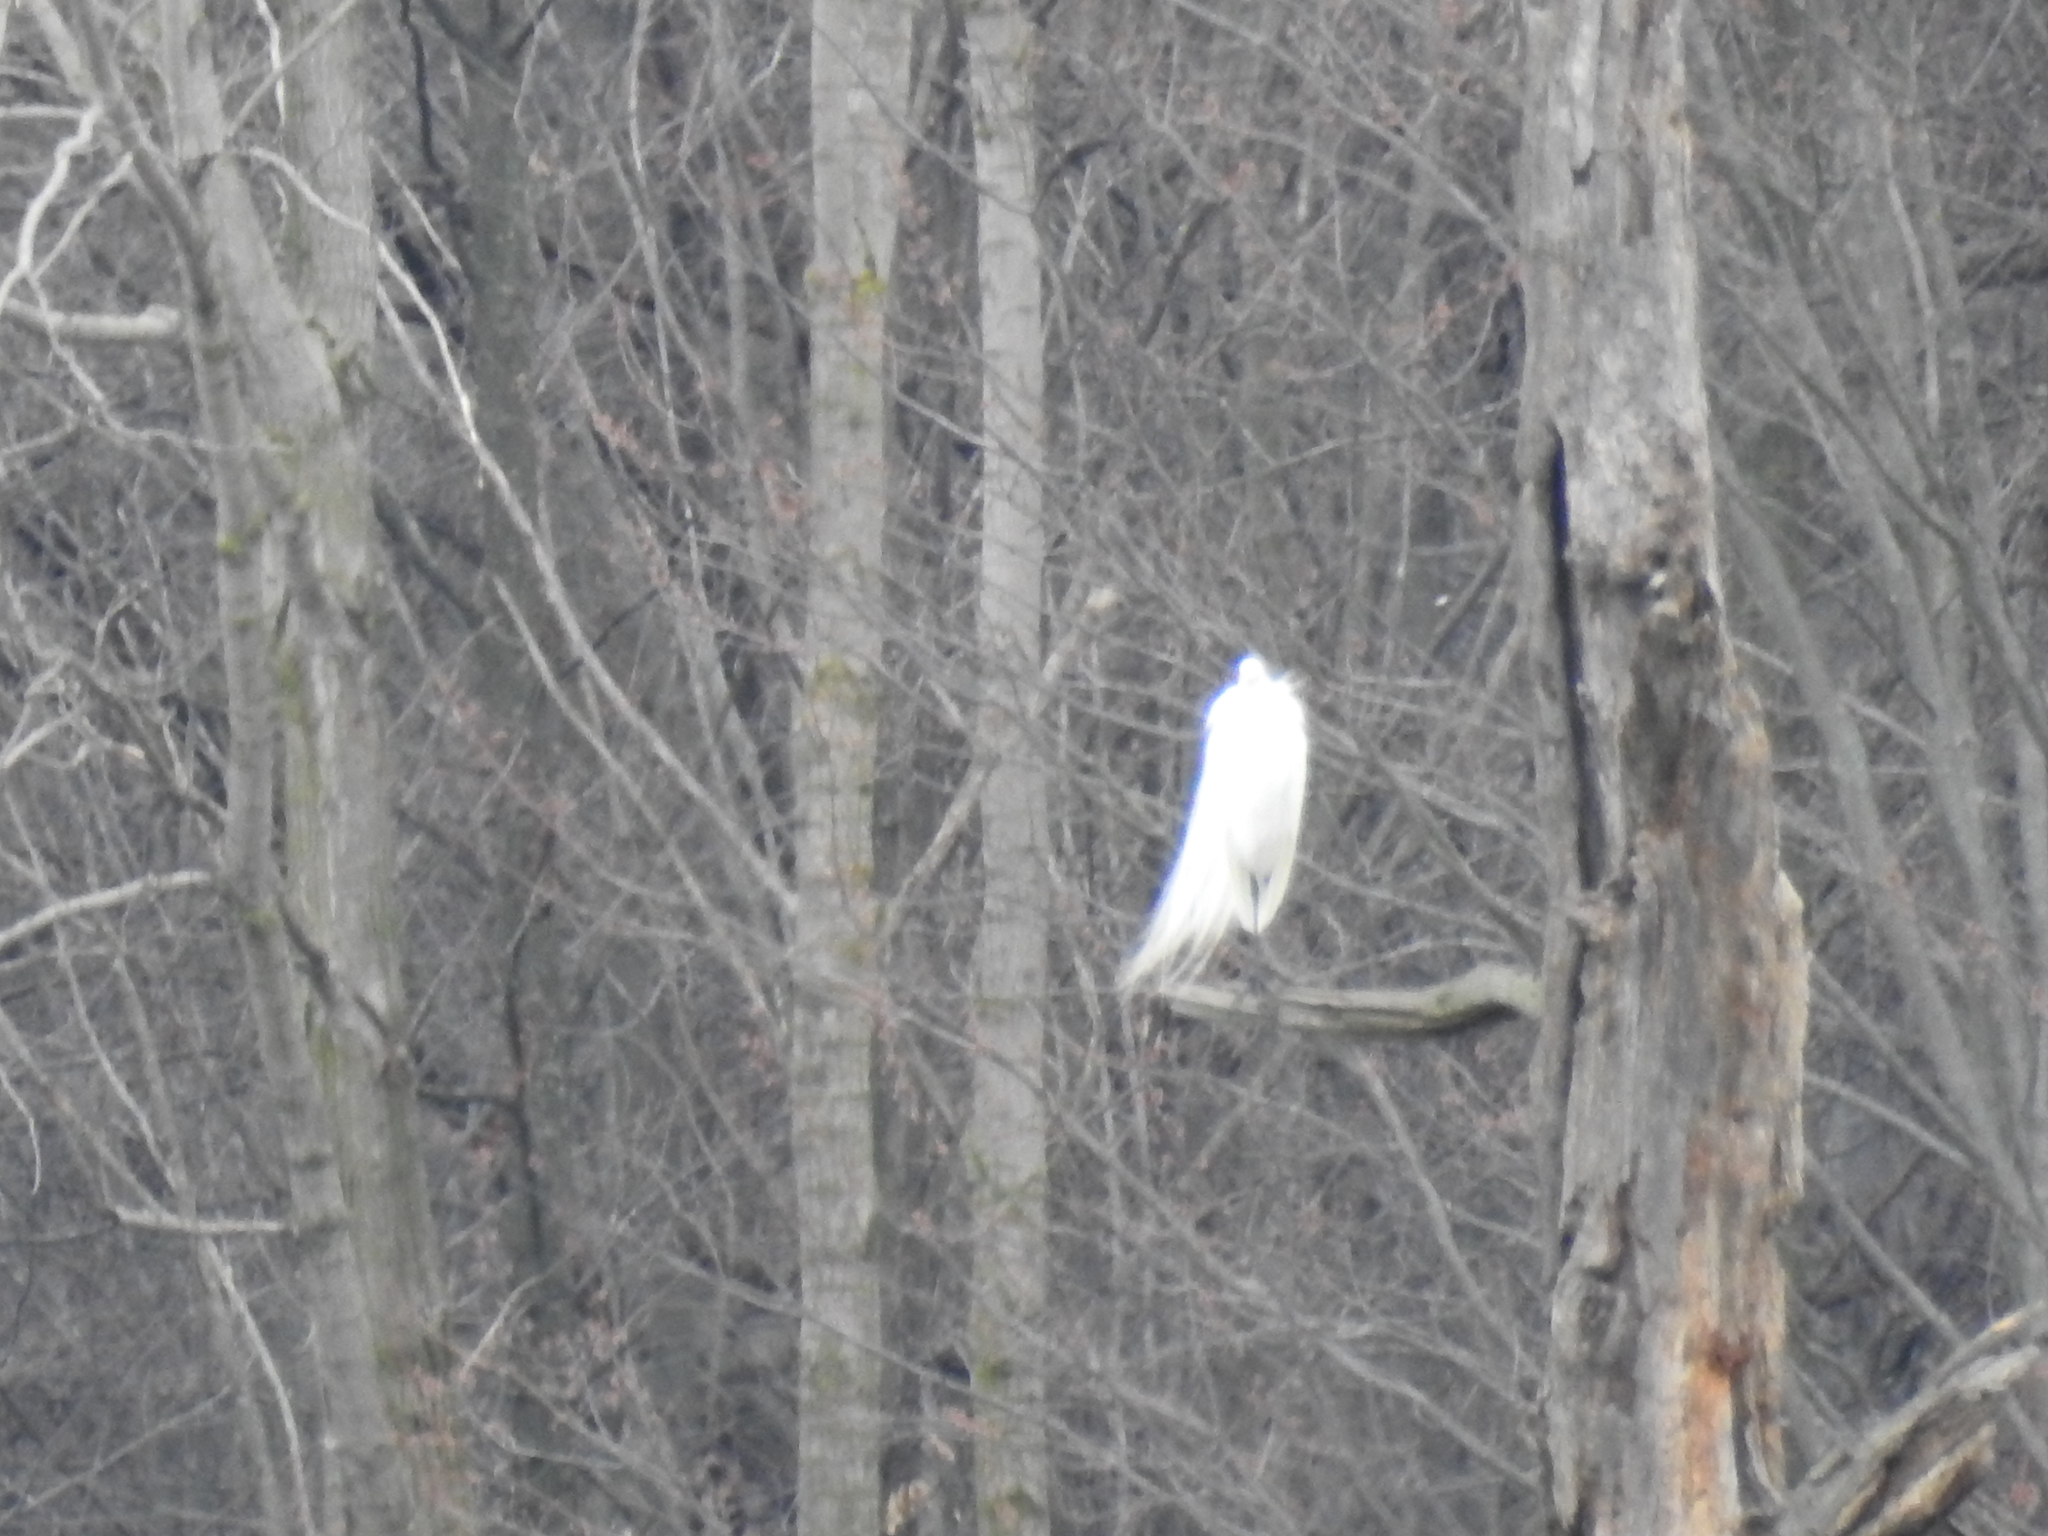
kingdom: Animalia
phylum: Chordata
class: Aves
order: Pelecaniformes
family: Ardeidae
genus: Ardea
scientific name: Ardea alba
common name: Great egret
